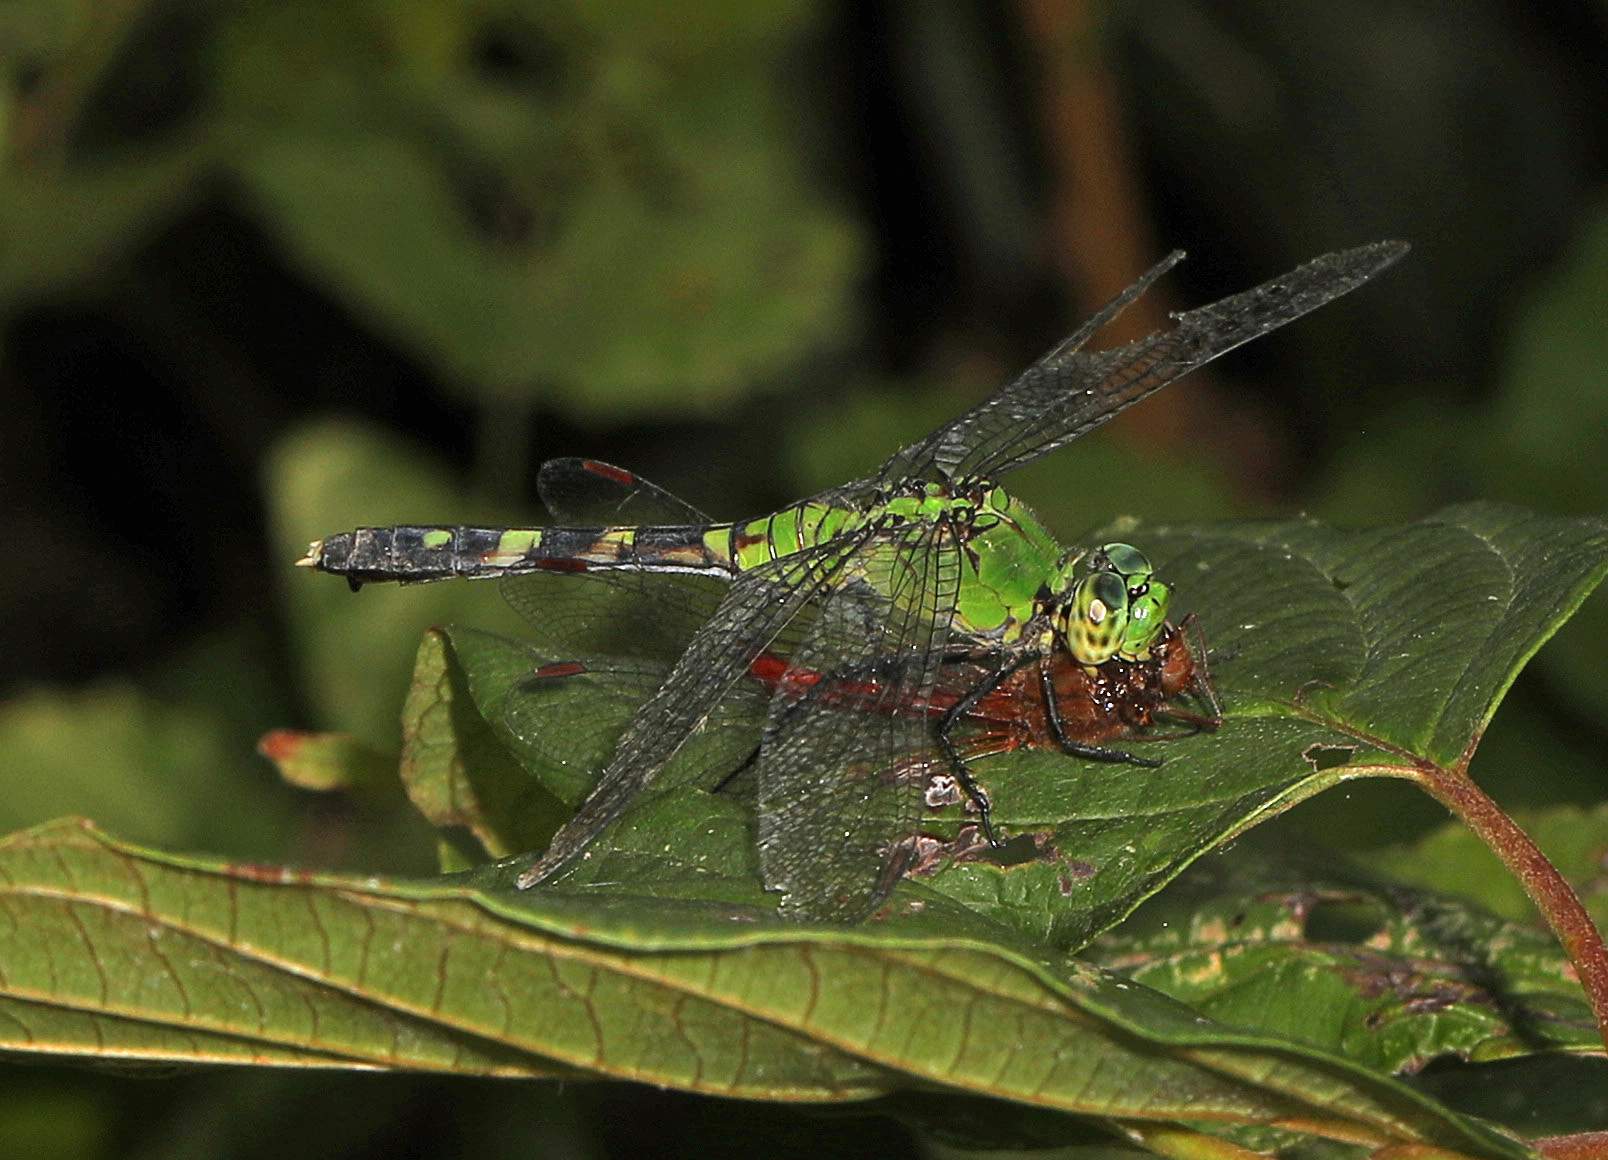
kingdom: Animalia
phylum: Arthropoda
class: Insecta
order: Odonata
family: Libellulidae
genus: Erythemis
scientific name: Erythemis simplicicollis
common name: Eastern pondhawk
